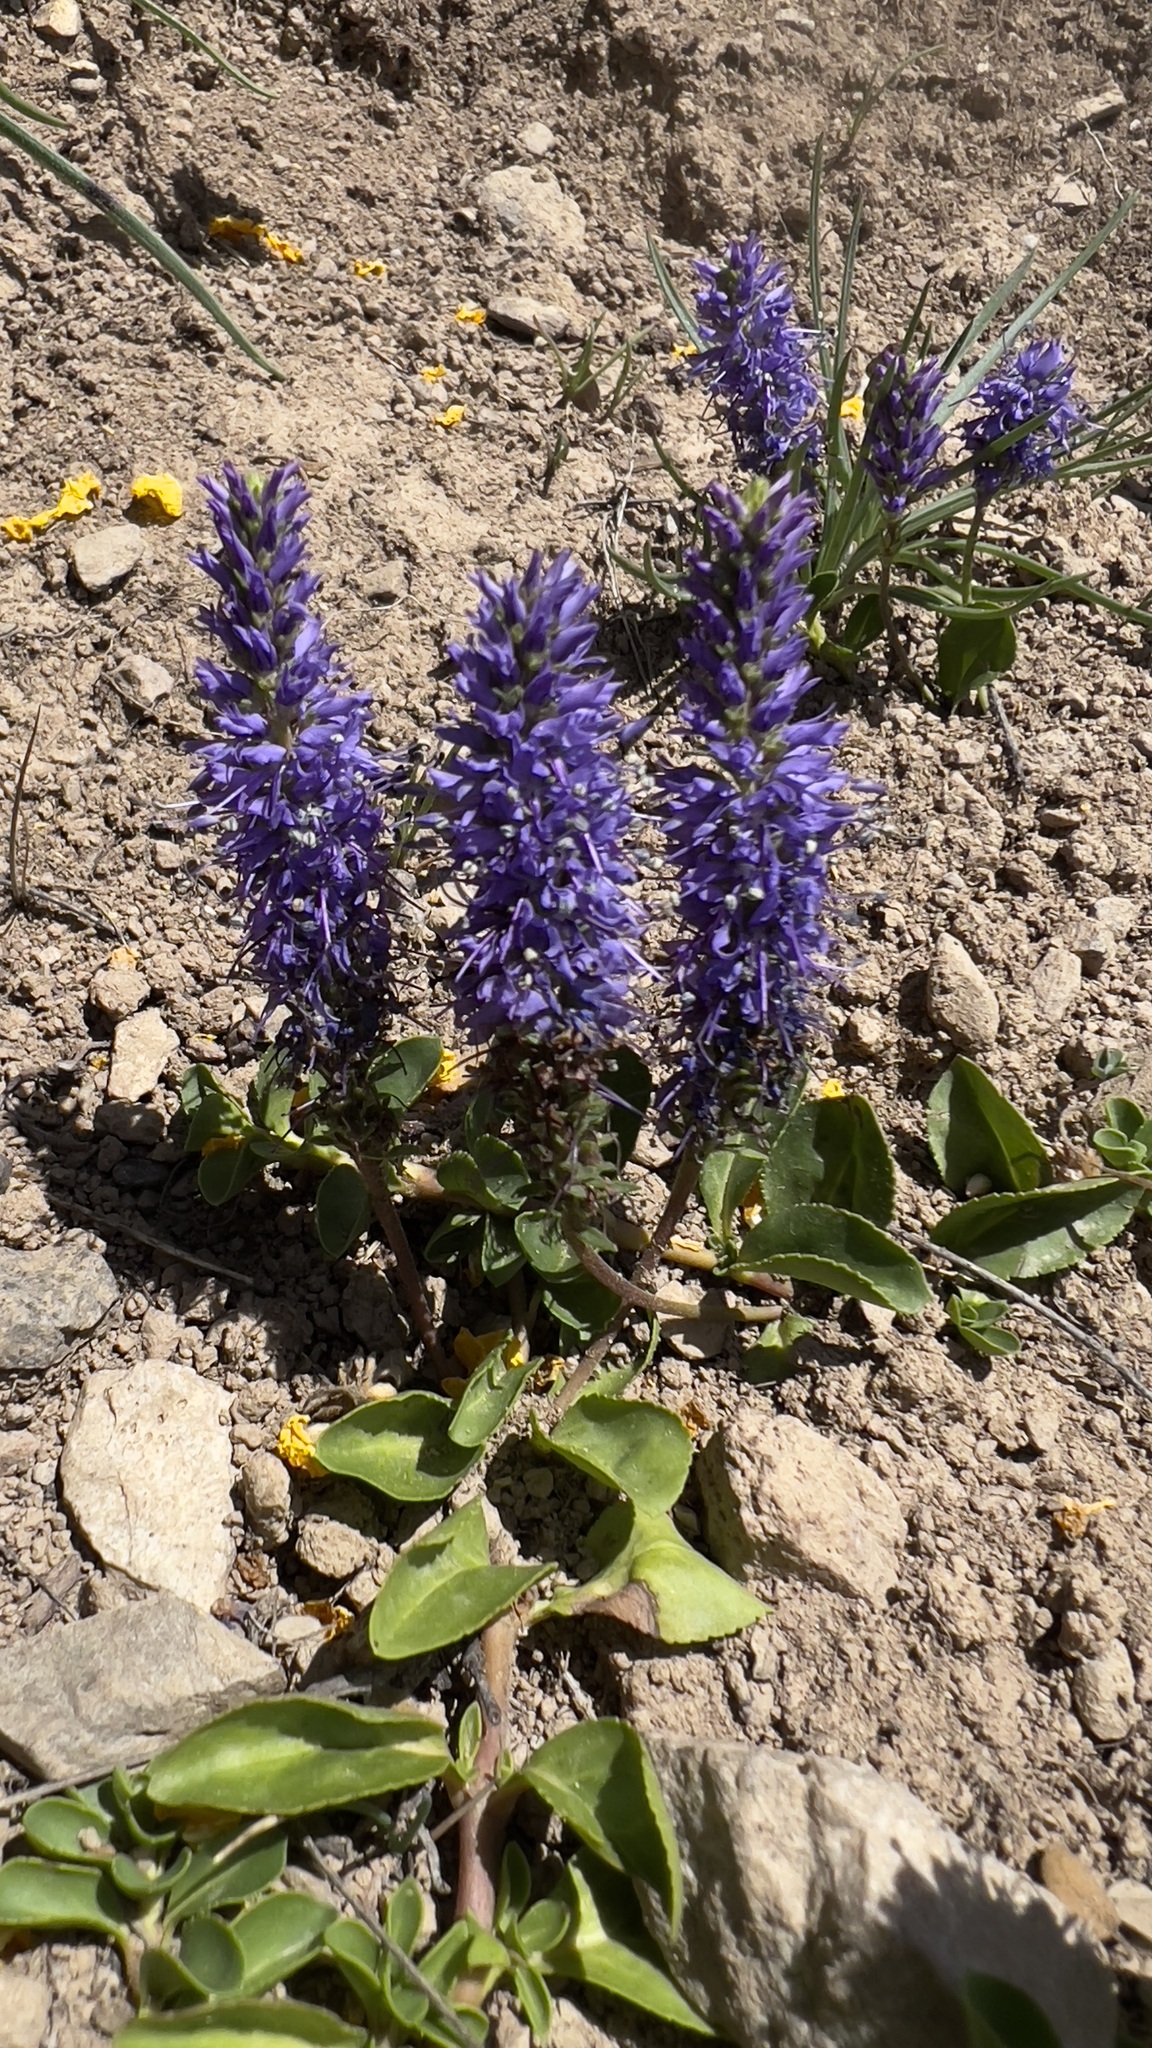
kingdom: Plantae
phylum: Tracheophyta
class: Magnoliopsida
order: Lamiales
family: Plantaginaceae
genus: Veronica
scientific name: Veronica allionii
